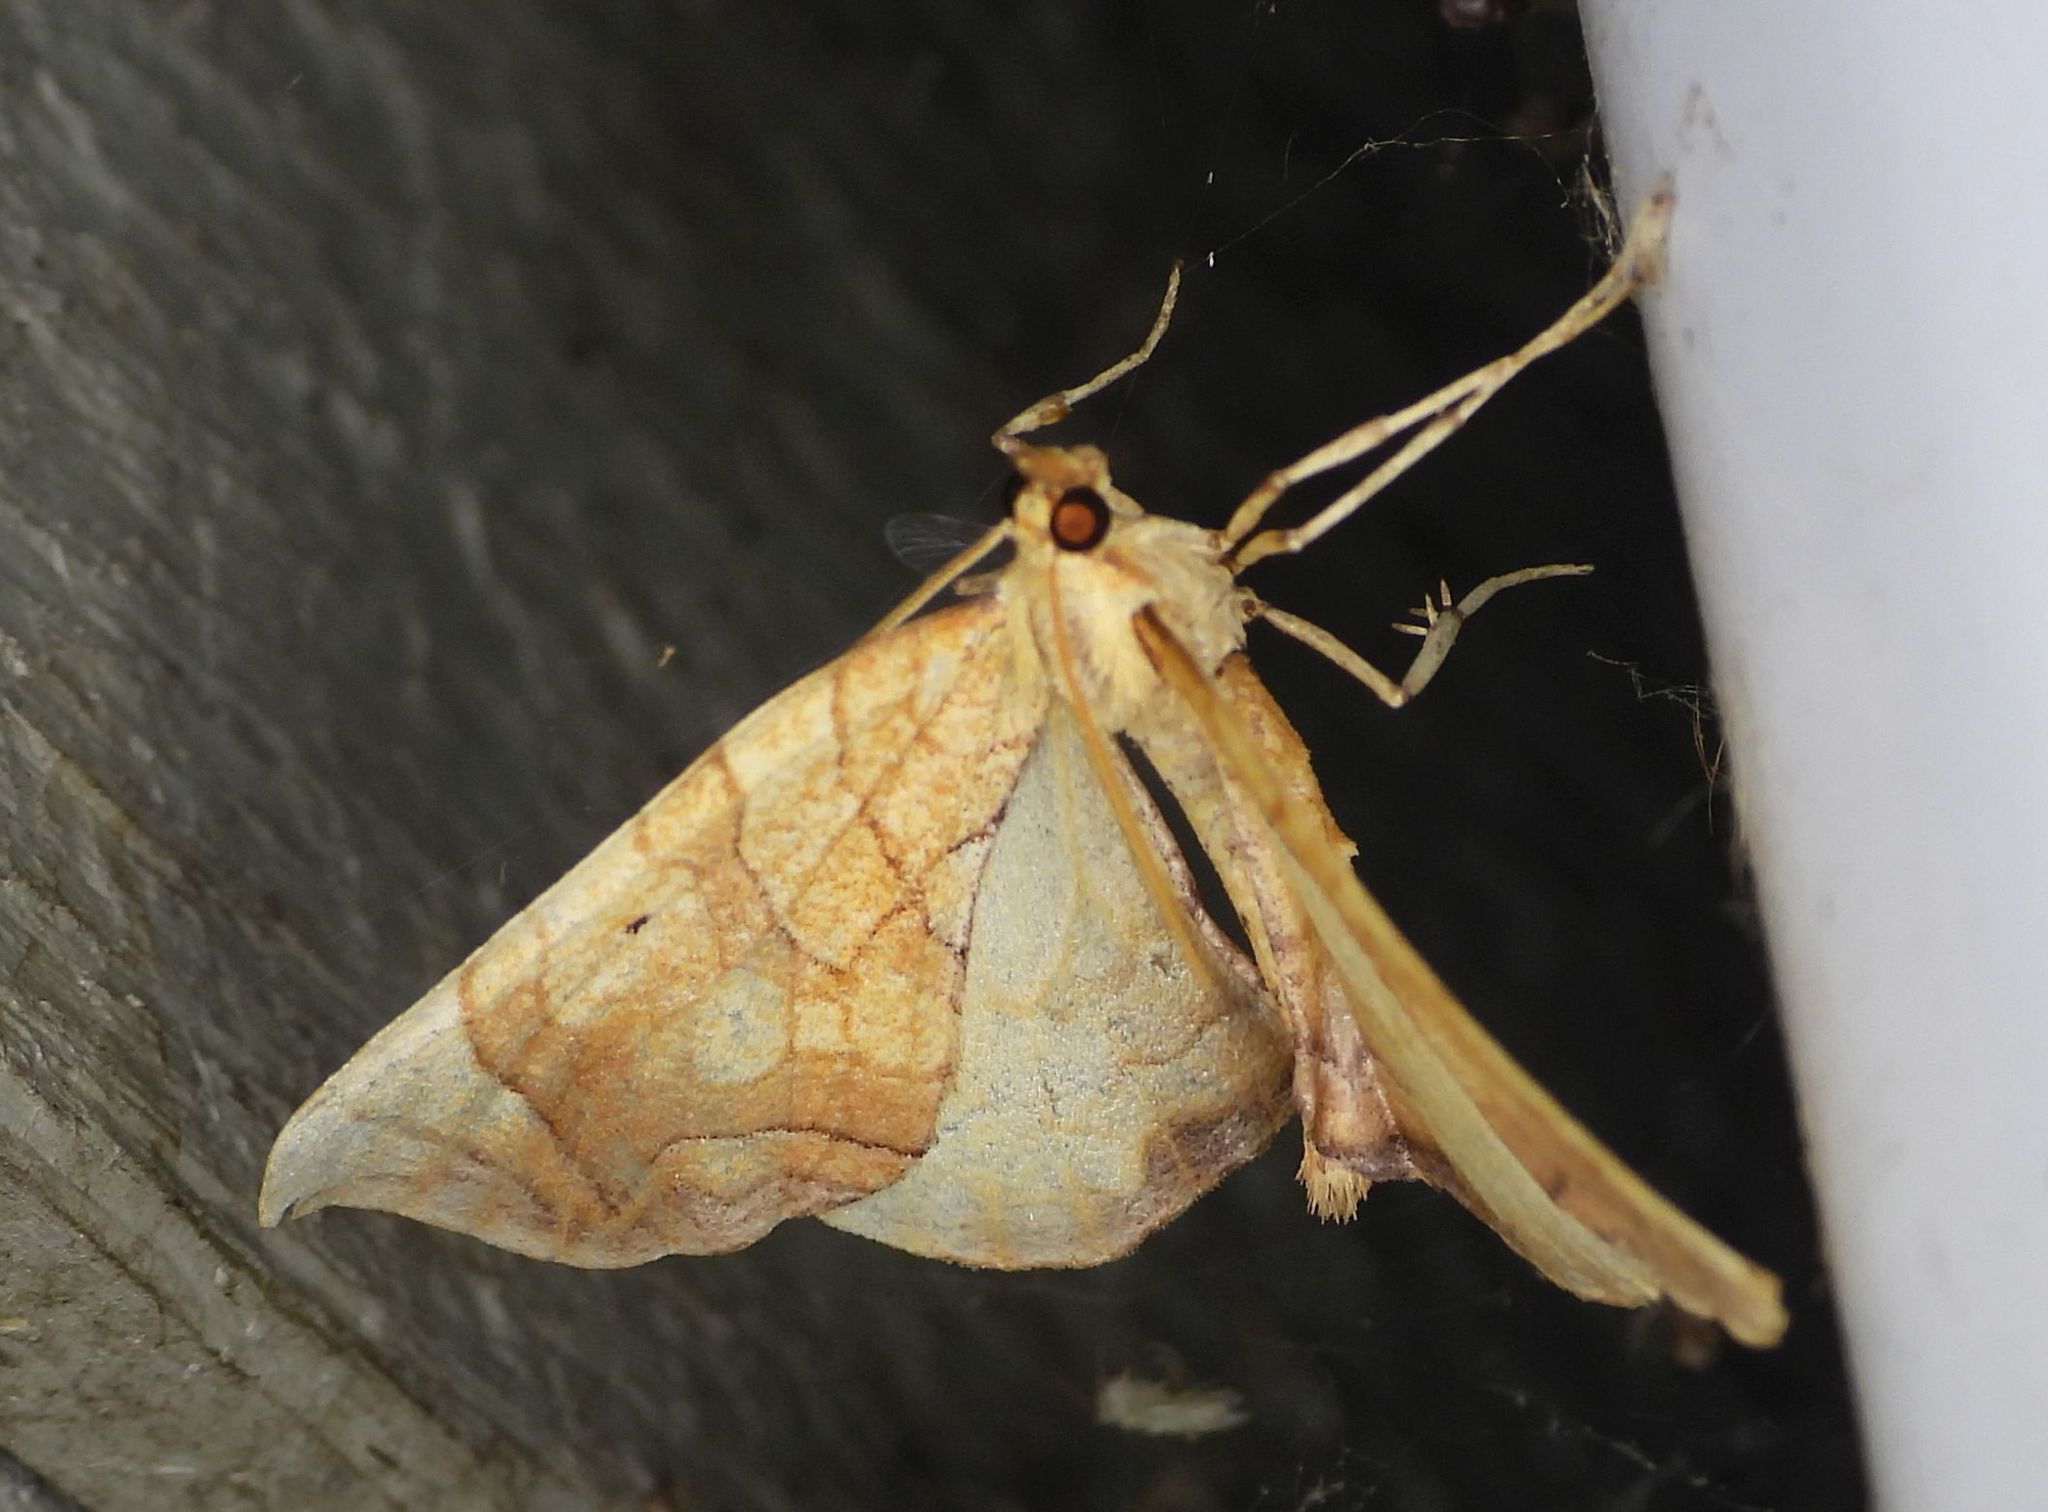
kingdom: Animalia
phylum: Arthropoda
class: Insecta
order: Lepidoptera
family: Geometridae
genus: Eulithis
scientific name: Eulithis
